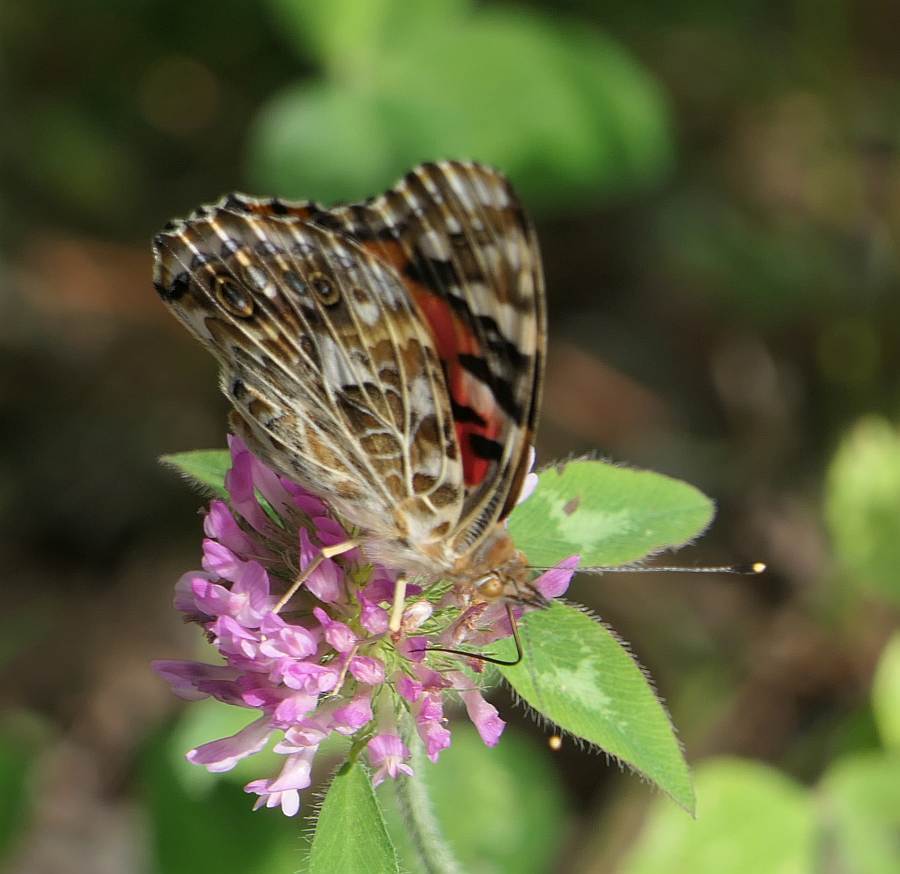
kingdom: Animalia
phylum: Arthropoda
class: Insecta
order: Lepidoptera
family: Nymphalidae
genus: Vanessa
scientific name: Vanessa cardui
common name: Painted lady
